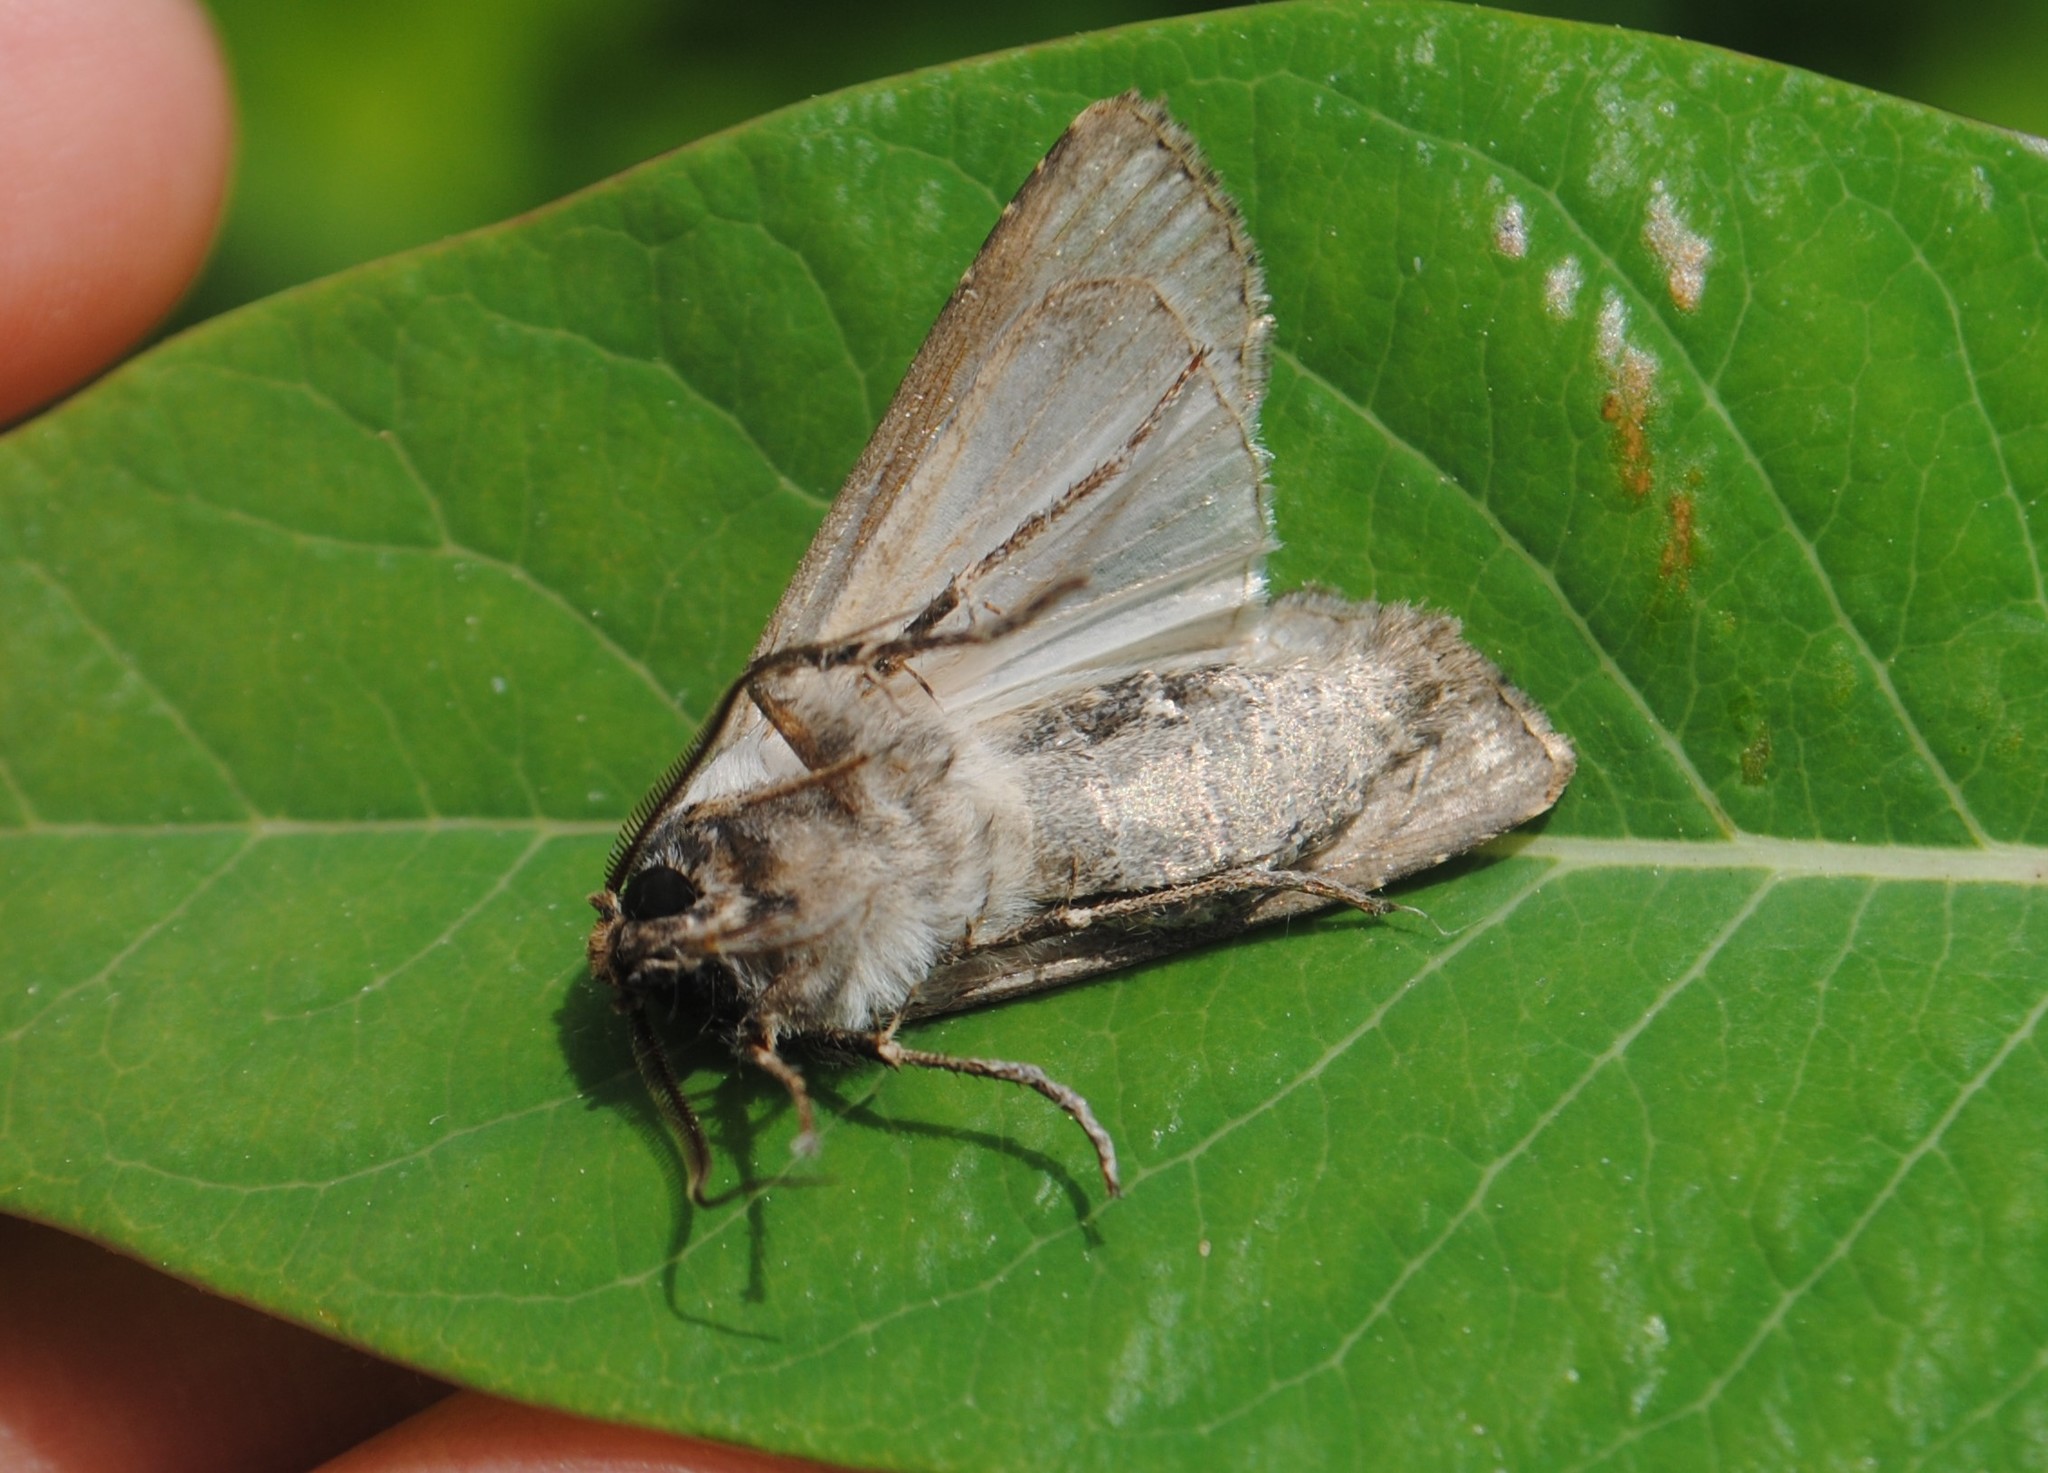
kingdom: Animalia
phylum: Arthropoda
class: Insecta
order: Lepidoptera
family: Noctuidae
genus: Agrotis
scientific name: Agrotis ipsilon
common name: Dark sword-grass
